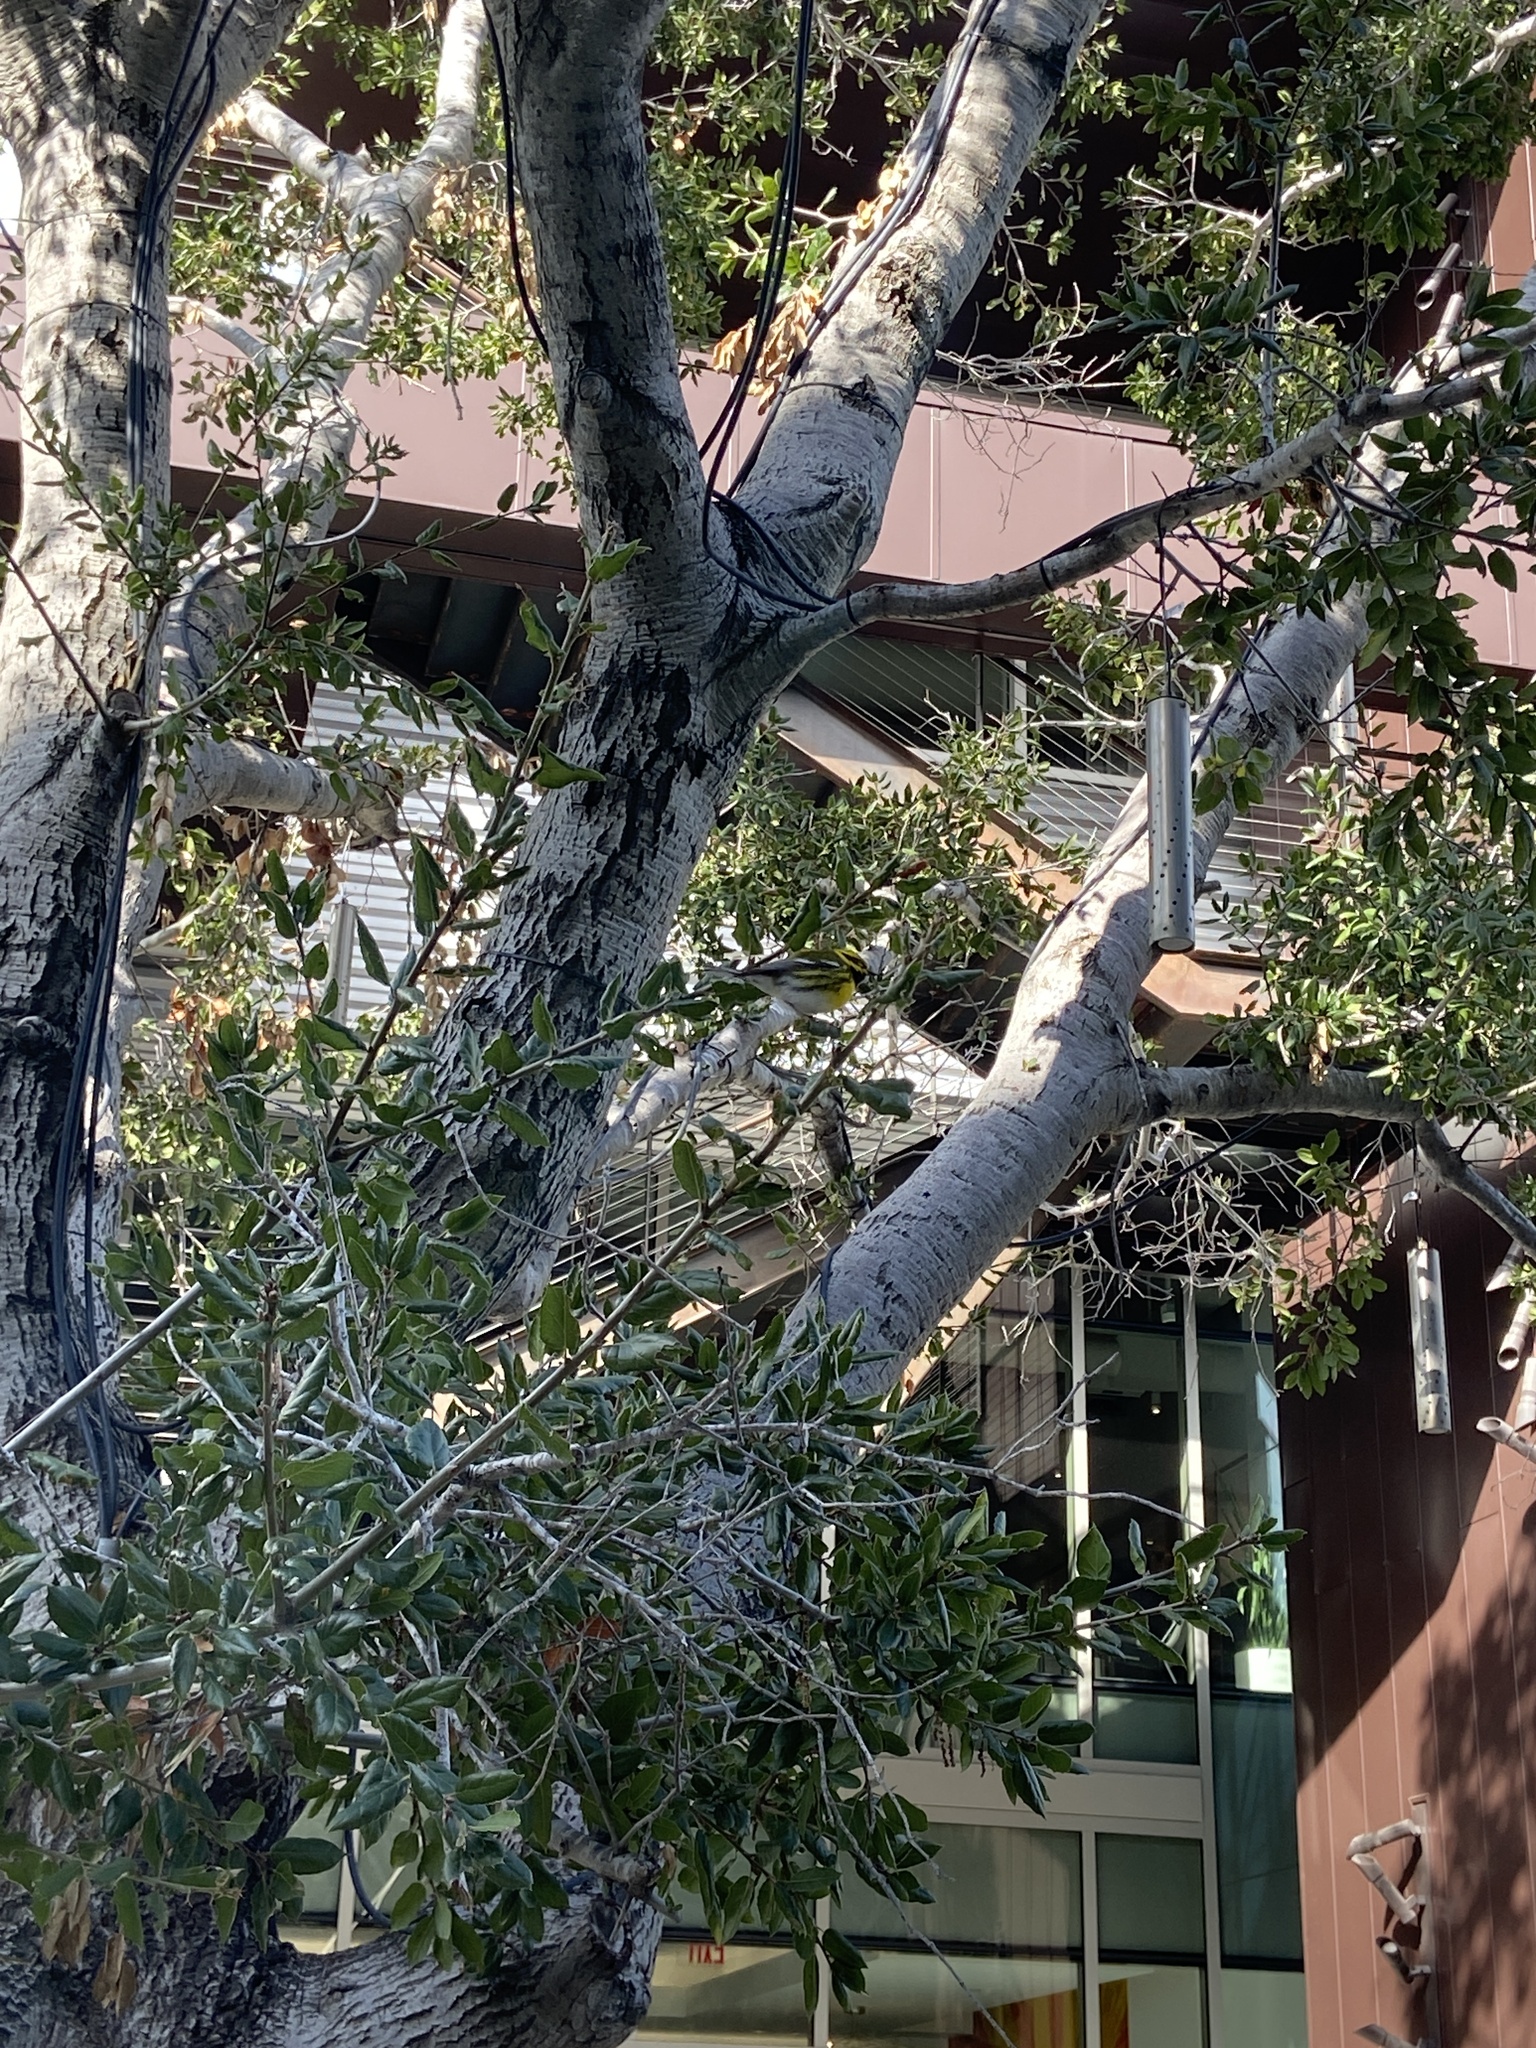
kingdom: Animalia
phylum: Chordata
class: Aves
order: Passeriformes
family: Parulidae
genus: Setophaga
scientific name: Setophaga townsendi
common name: Townsend's warbler
